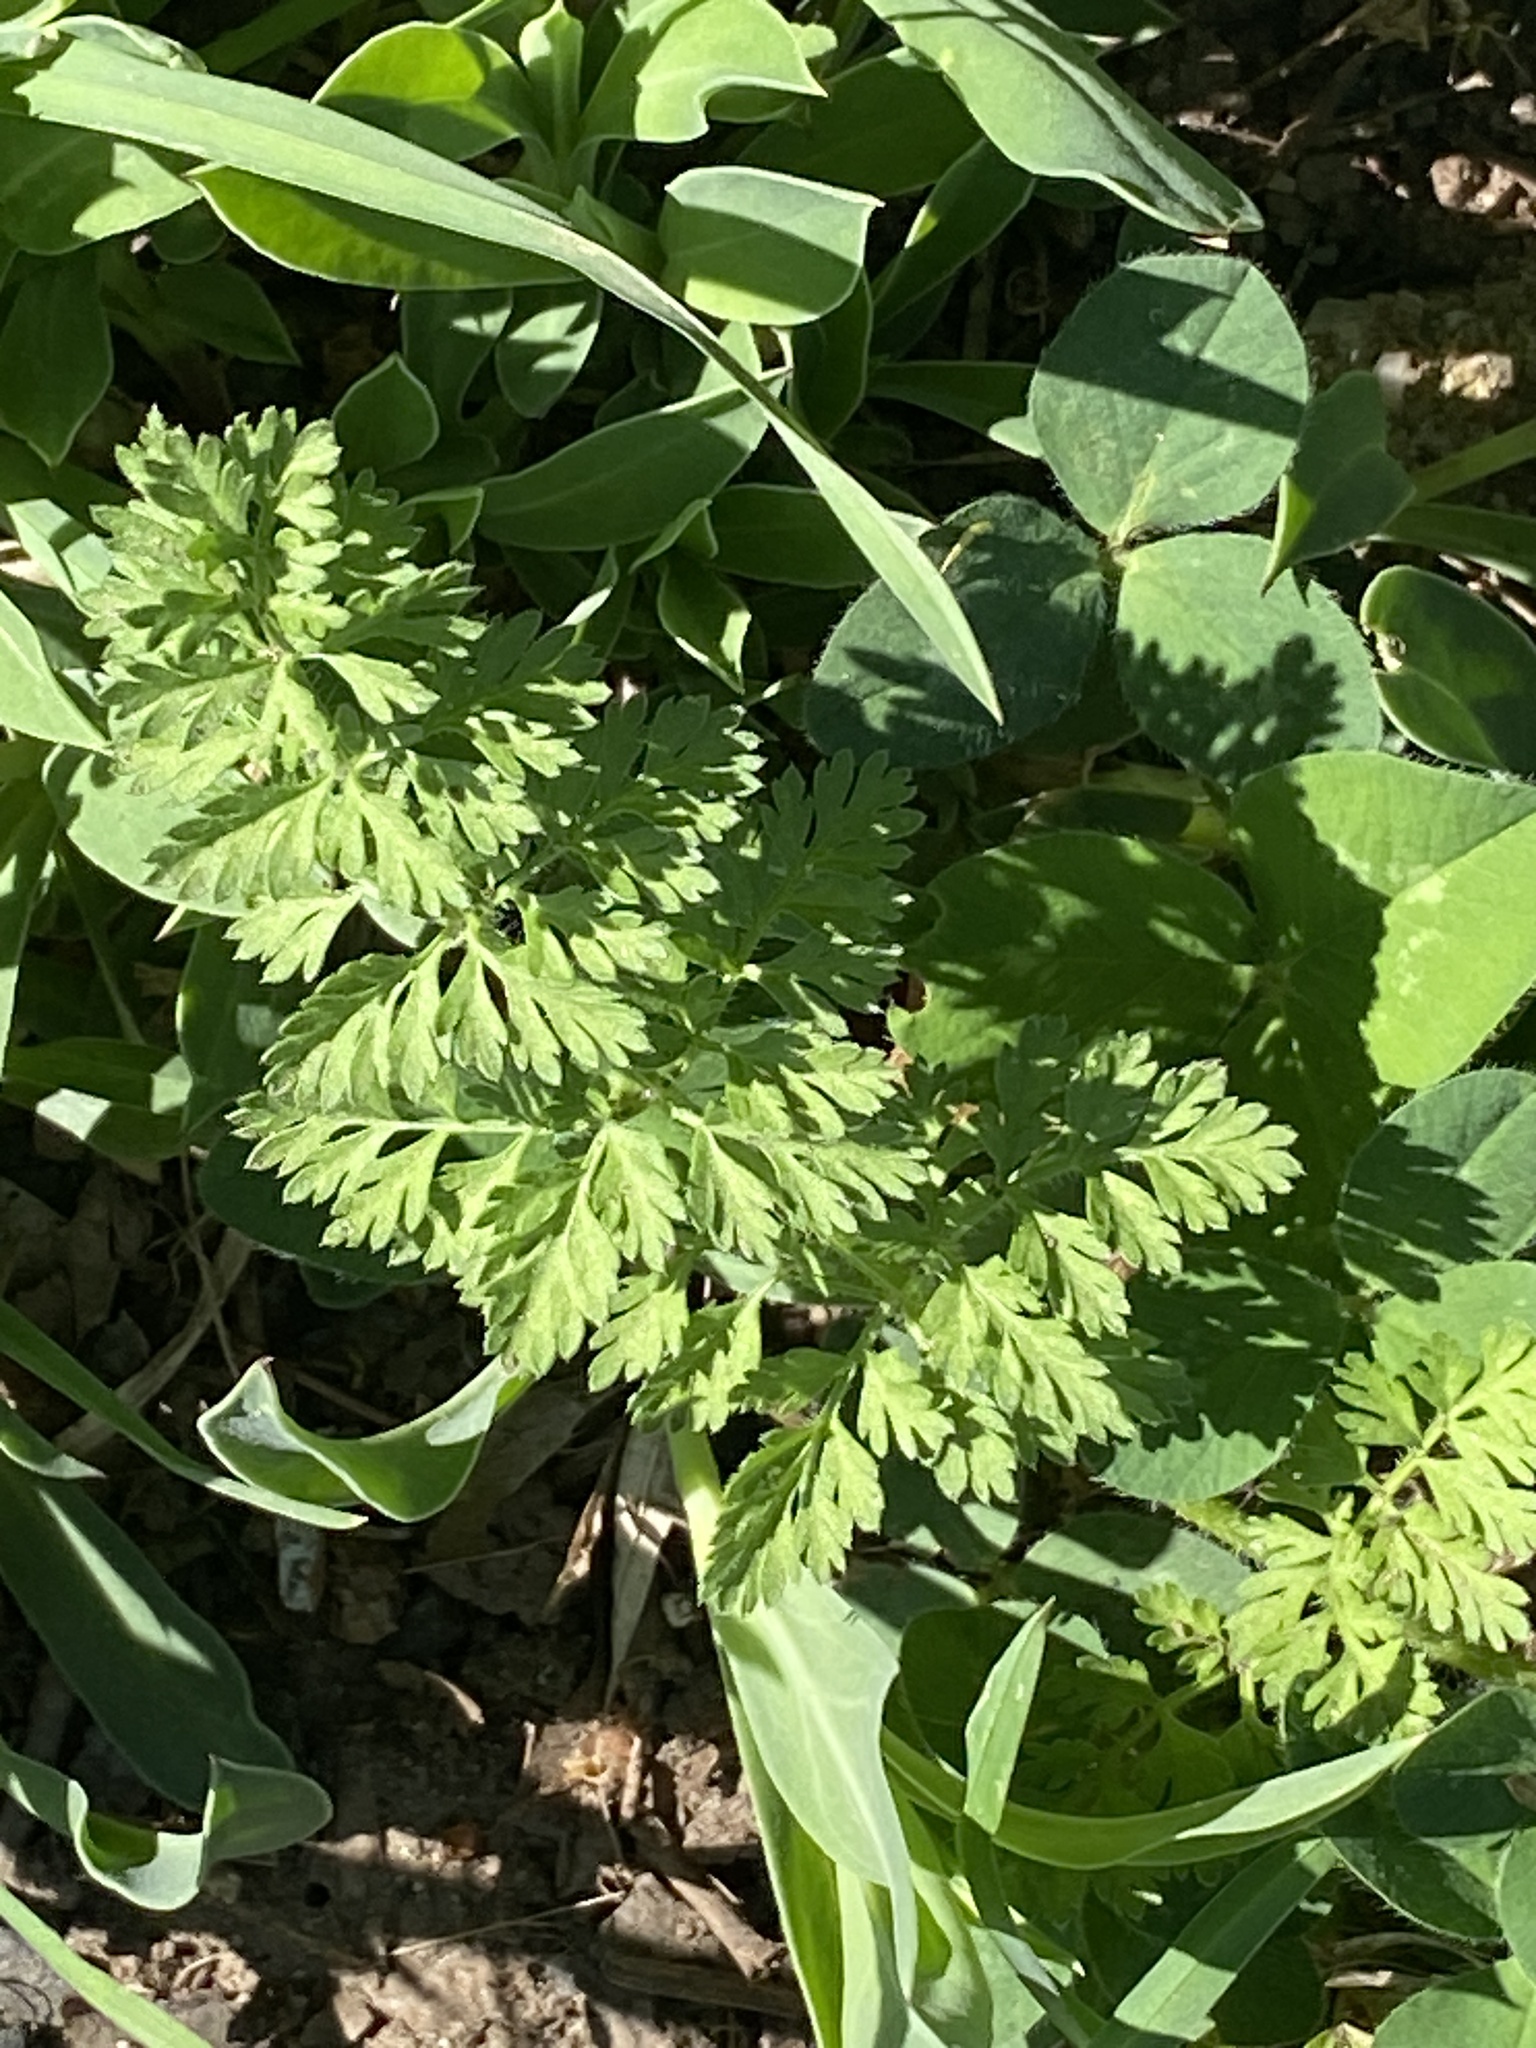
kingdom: Plantae
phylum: Tracheophyta
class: Magnoliopsida
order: Apiales
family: Apiaceae
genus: Daucus
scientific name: Daucus carota
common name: Wild carrot
